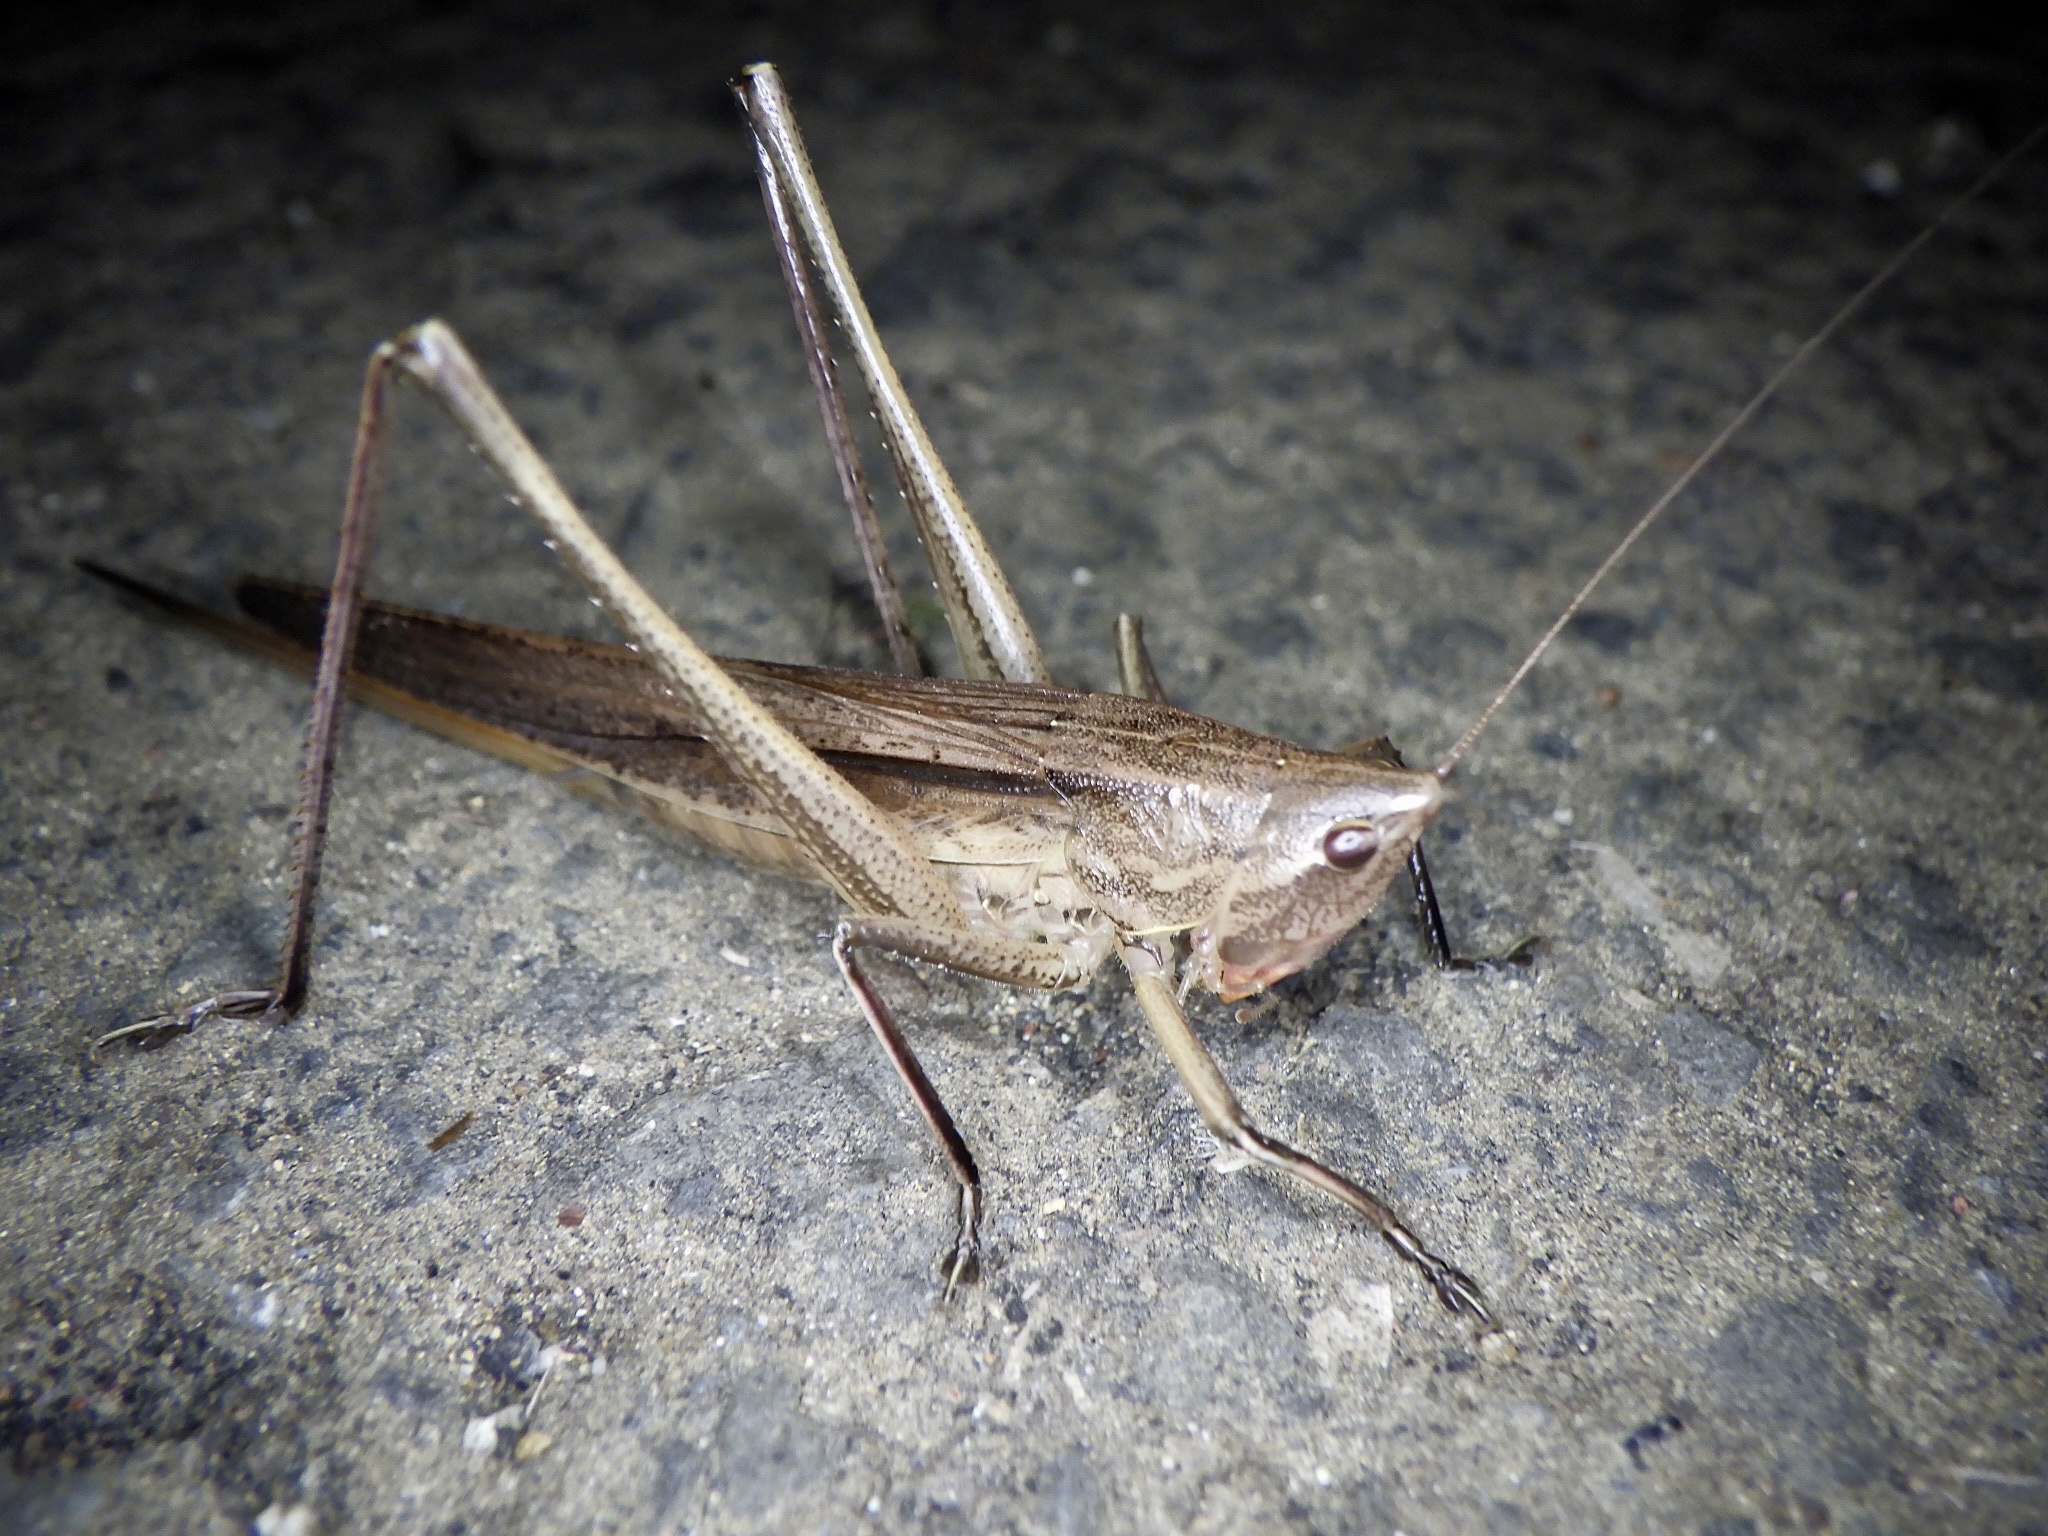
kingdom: Animalia
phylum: Arthropoda
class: Insecta
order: Orthoptera
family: Tettigoniidae
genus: Ruspolia
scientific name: Ruspolia lineosa
